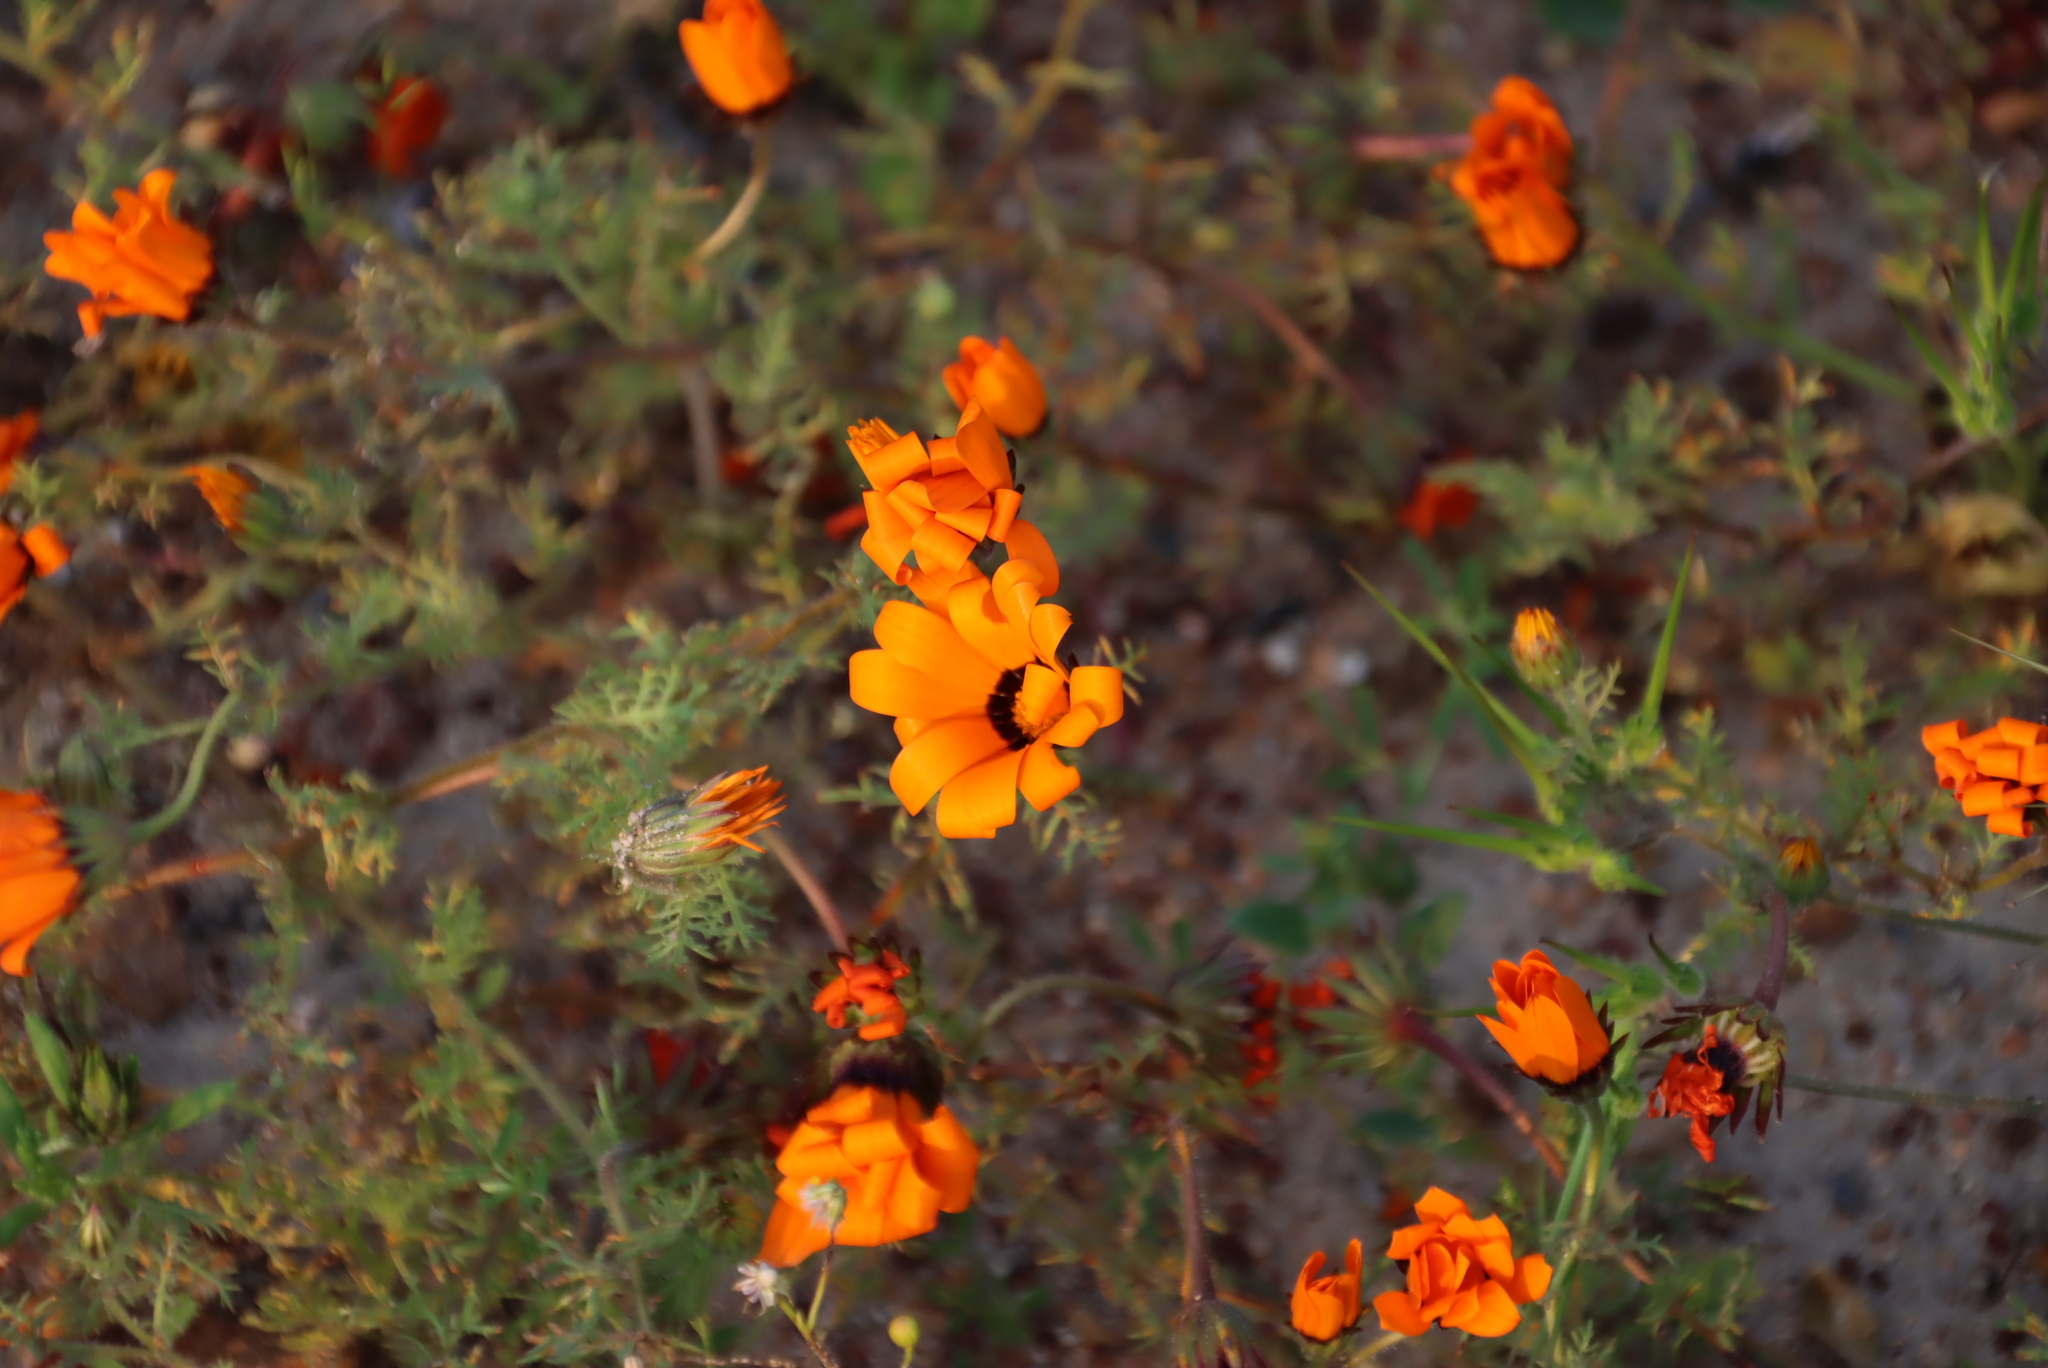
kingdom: Plantae
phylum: Tracheophyta
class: Magnoliopsida
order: Asterales
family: Asteraceae
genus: Dimorphotheca
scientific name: Dimorphotheca pinnata
